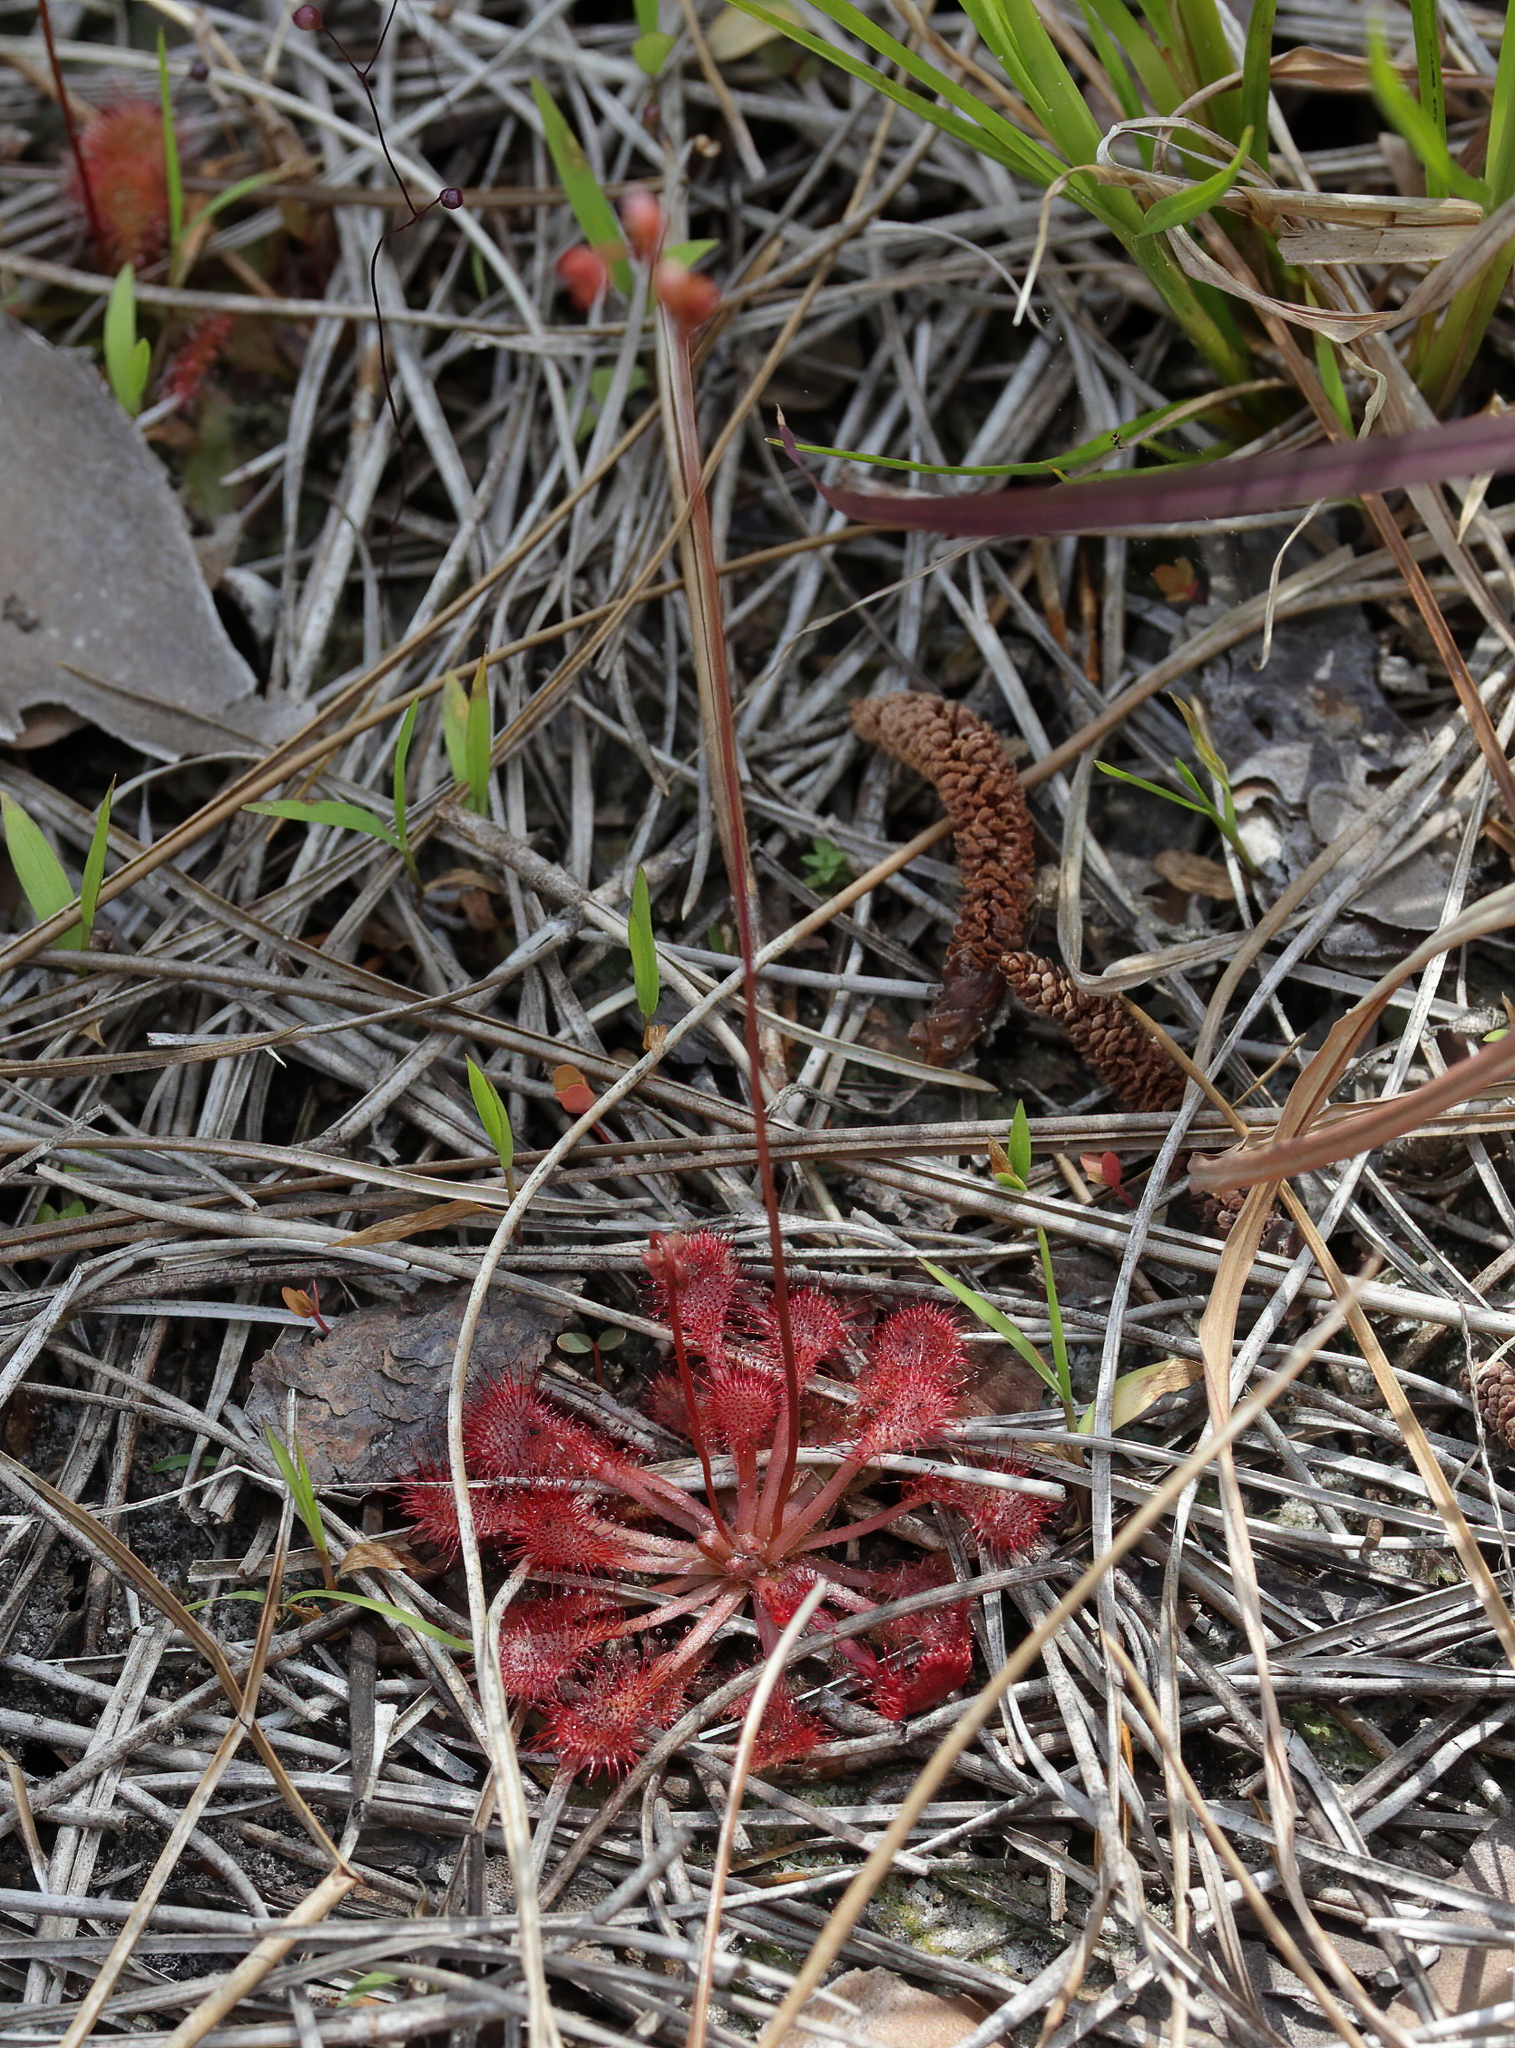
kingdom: Plantae
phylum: Tracheophyta
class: Magnoliopsida
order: Caryophyllales
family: Droseraceae
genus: Drosera
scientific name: Drosera capillaris
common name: Pink sundew
